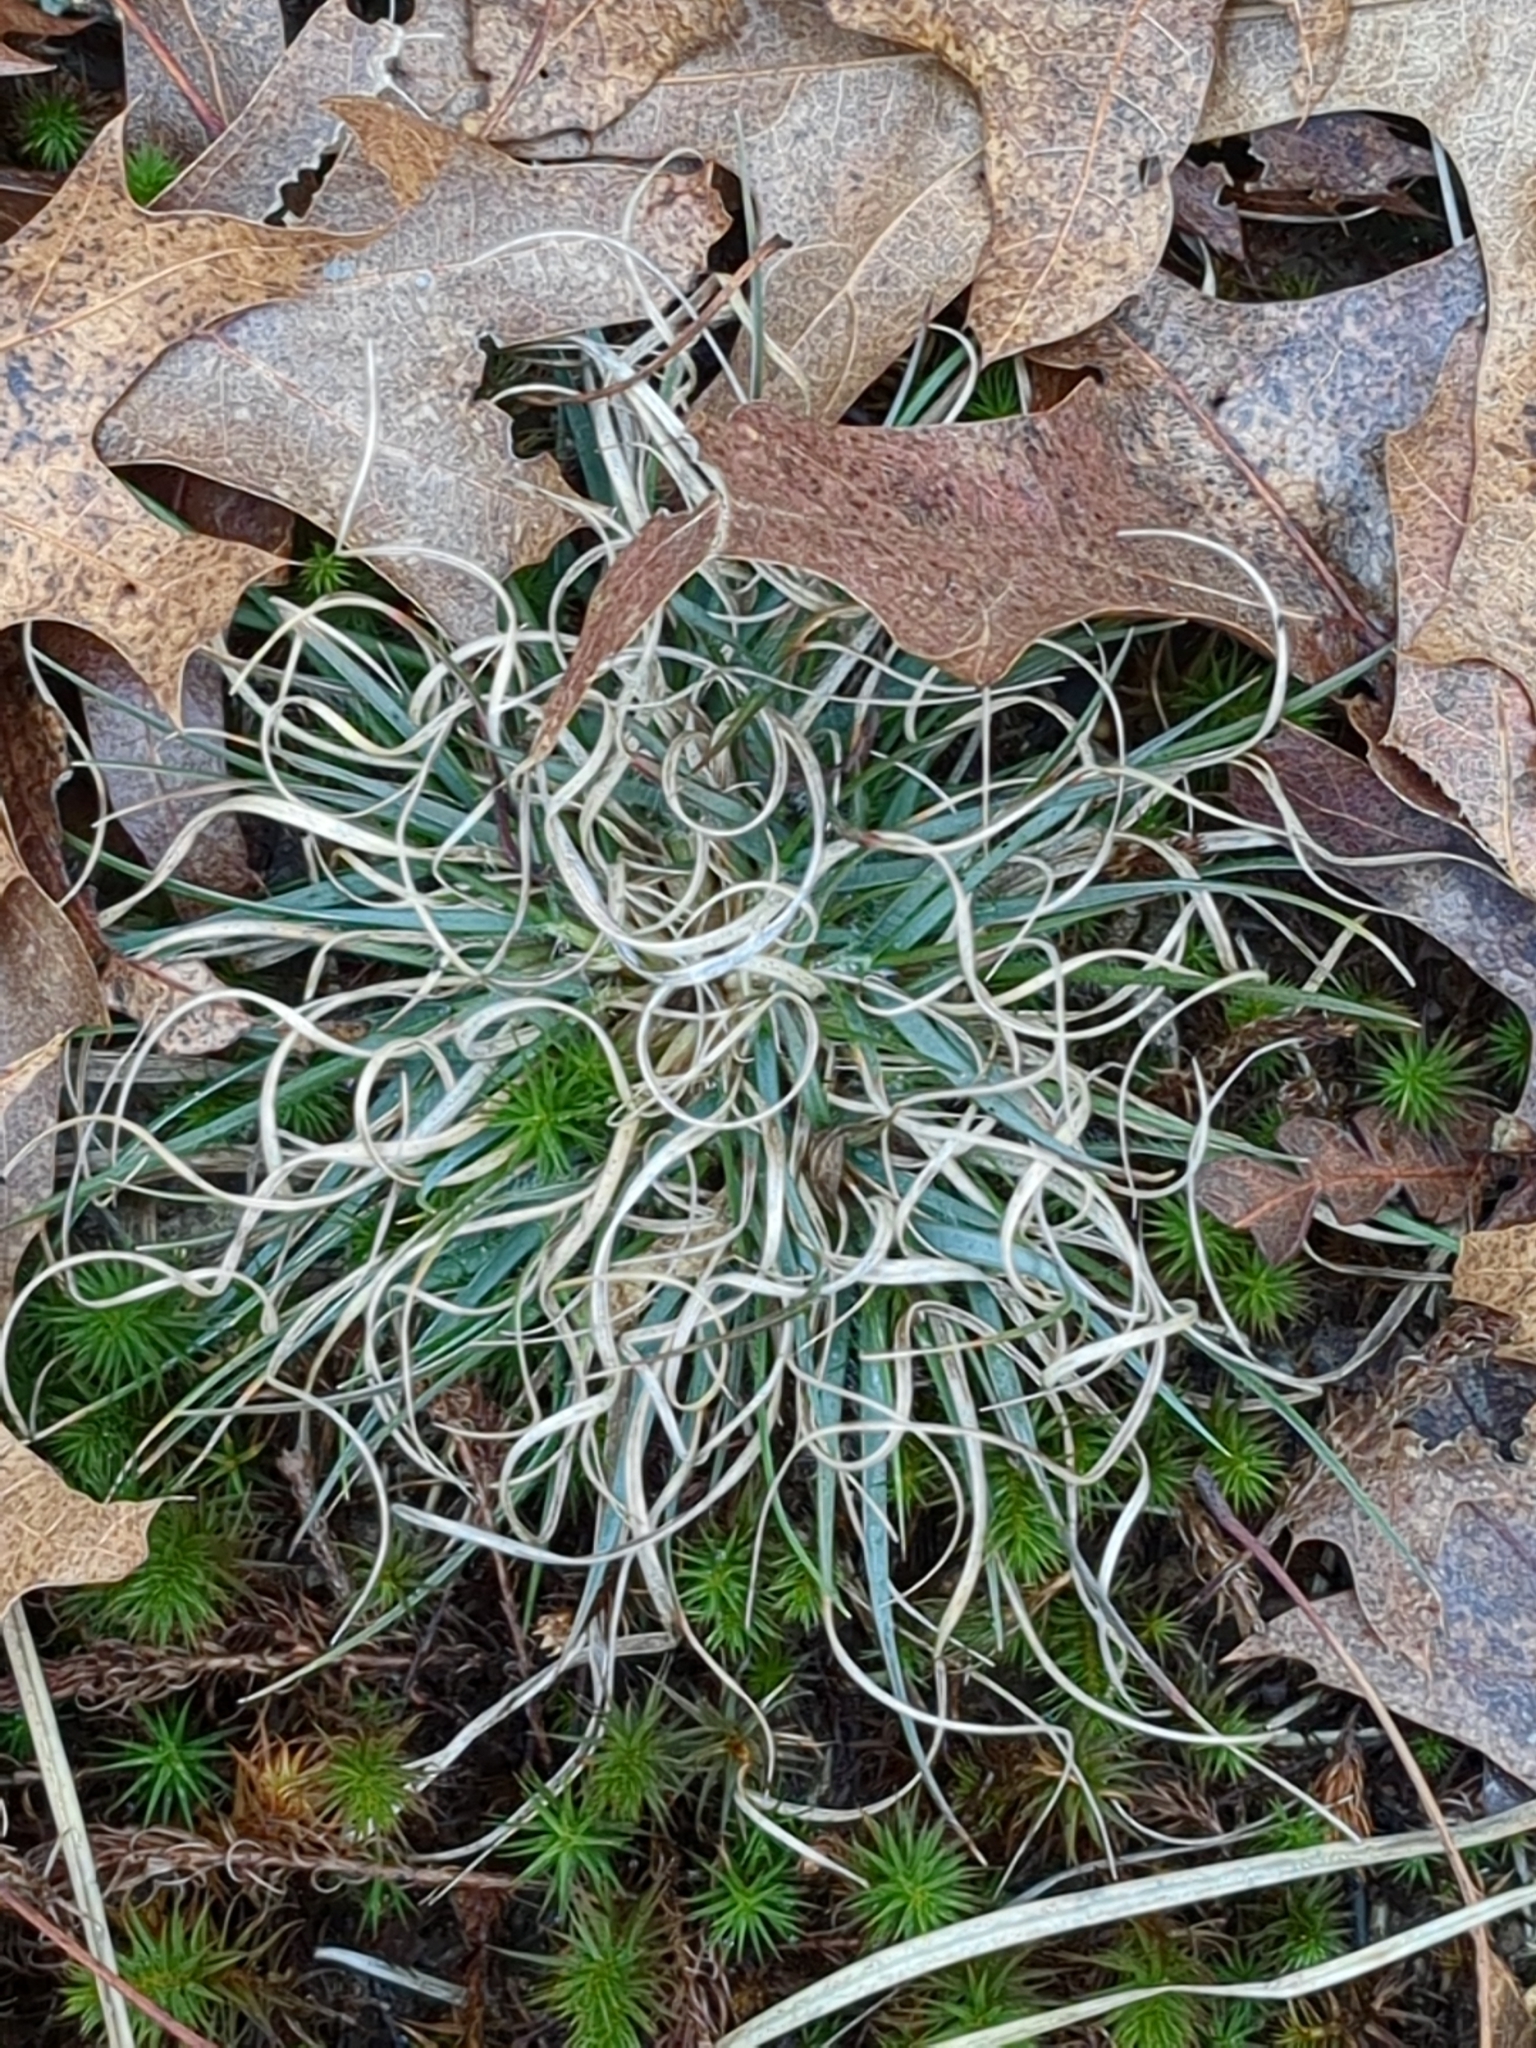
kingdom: Plantae
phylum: Tracheophyta
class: Liliopsida
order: Poales
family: Poaceae
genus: Danthonia
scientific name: Danthonia spicata
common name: Common wild oatgrass
